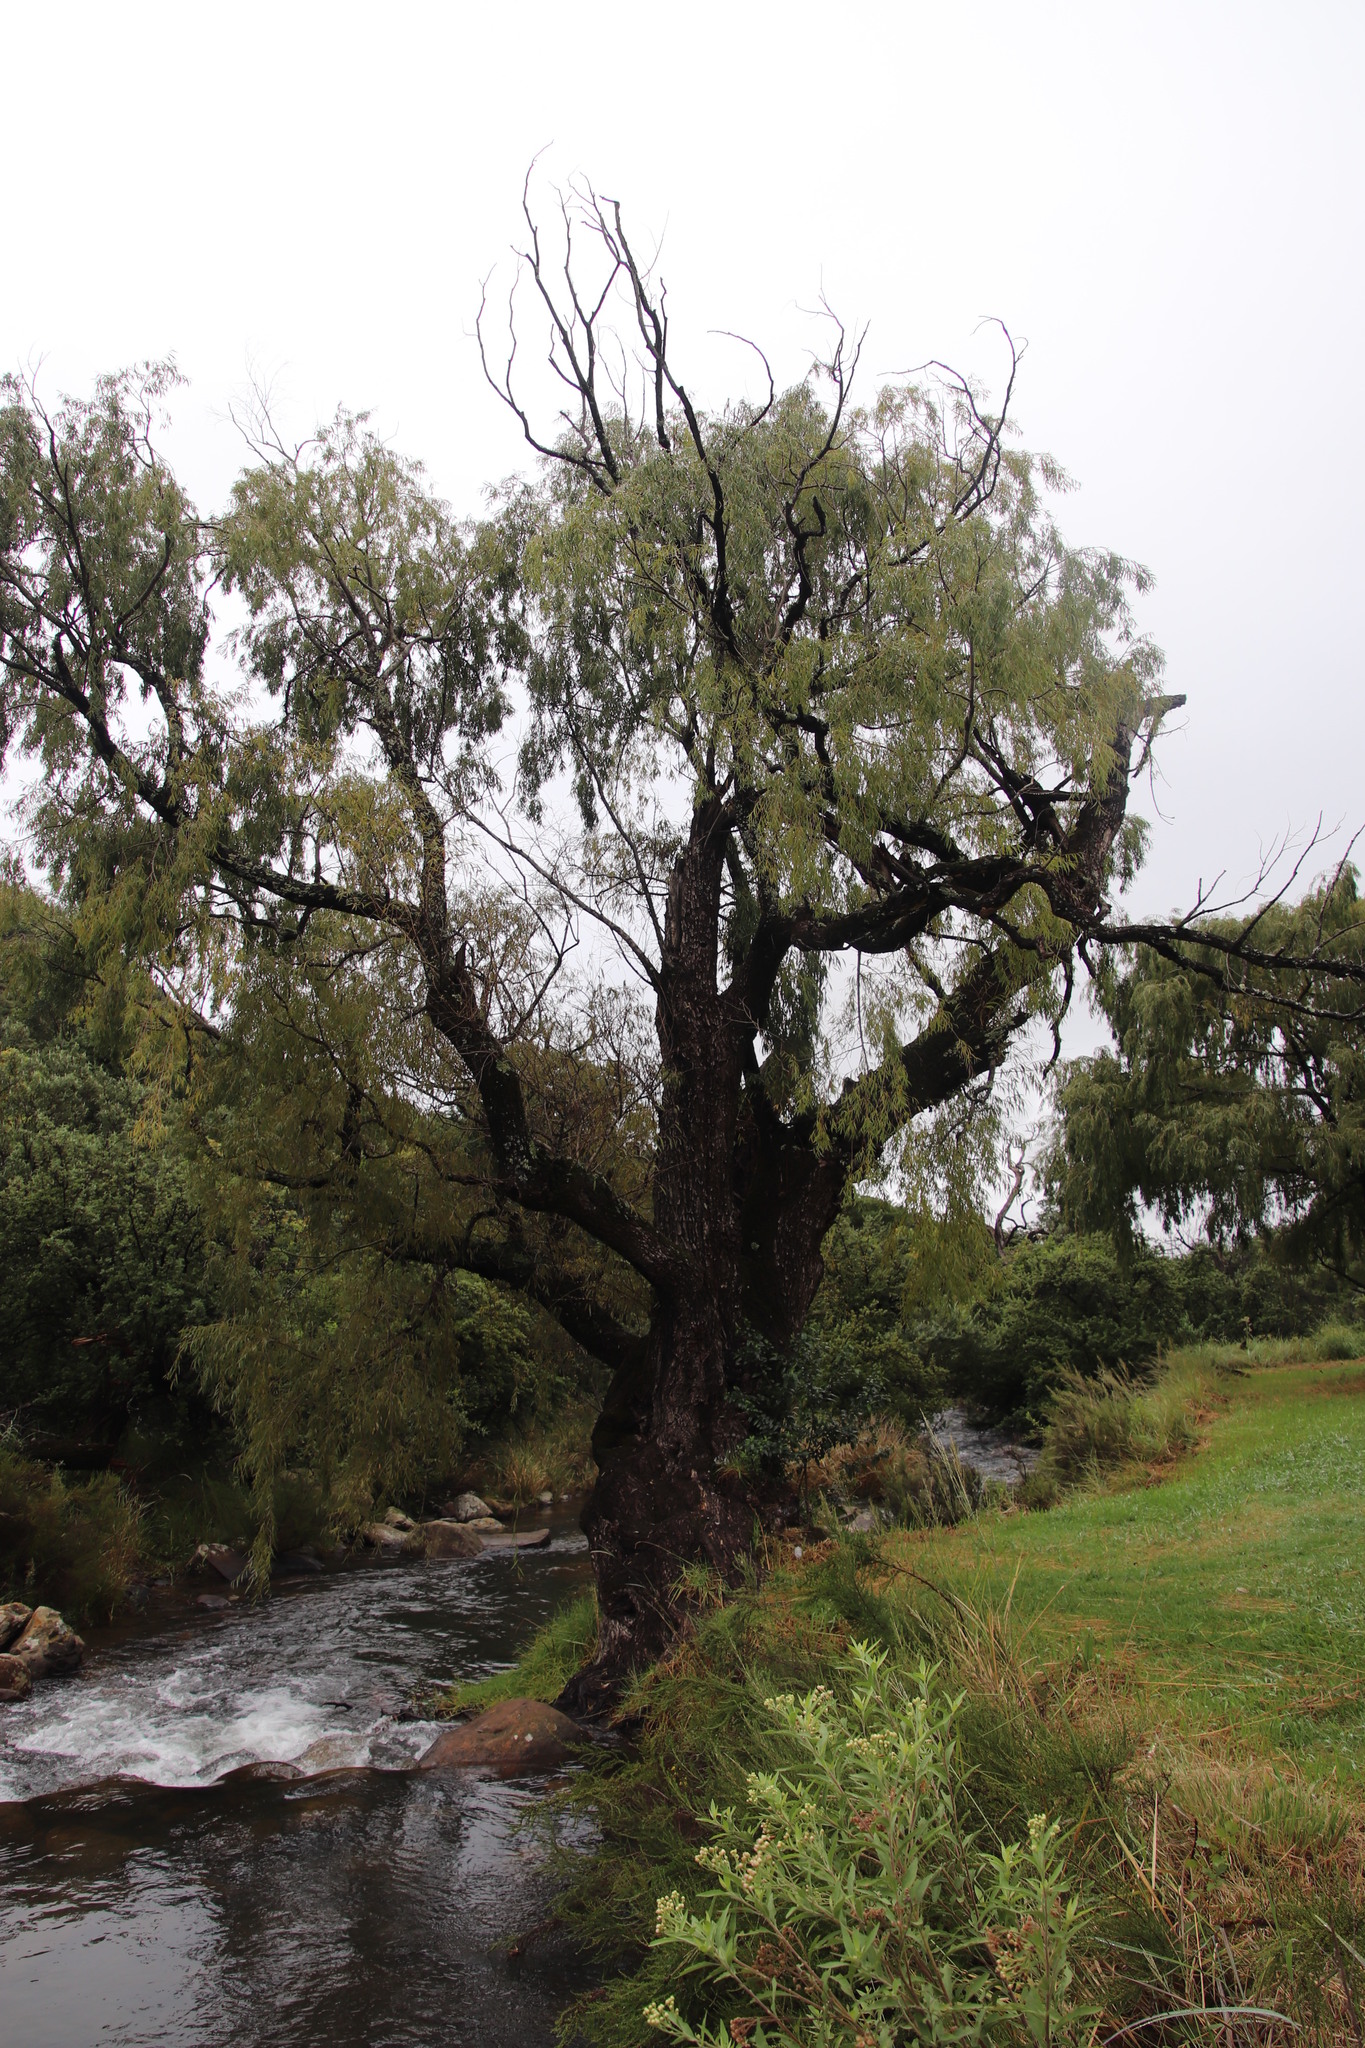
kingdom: Plantae
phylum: Tracheophyta
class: Magnoliopsida
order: Malpighiales
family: Salicaceae
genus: Salix
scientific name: Salix babylonica
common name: Weeping willow
